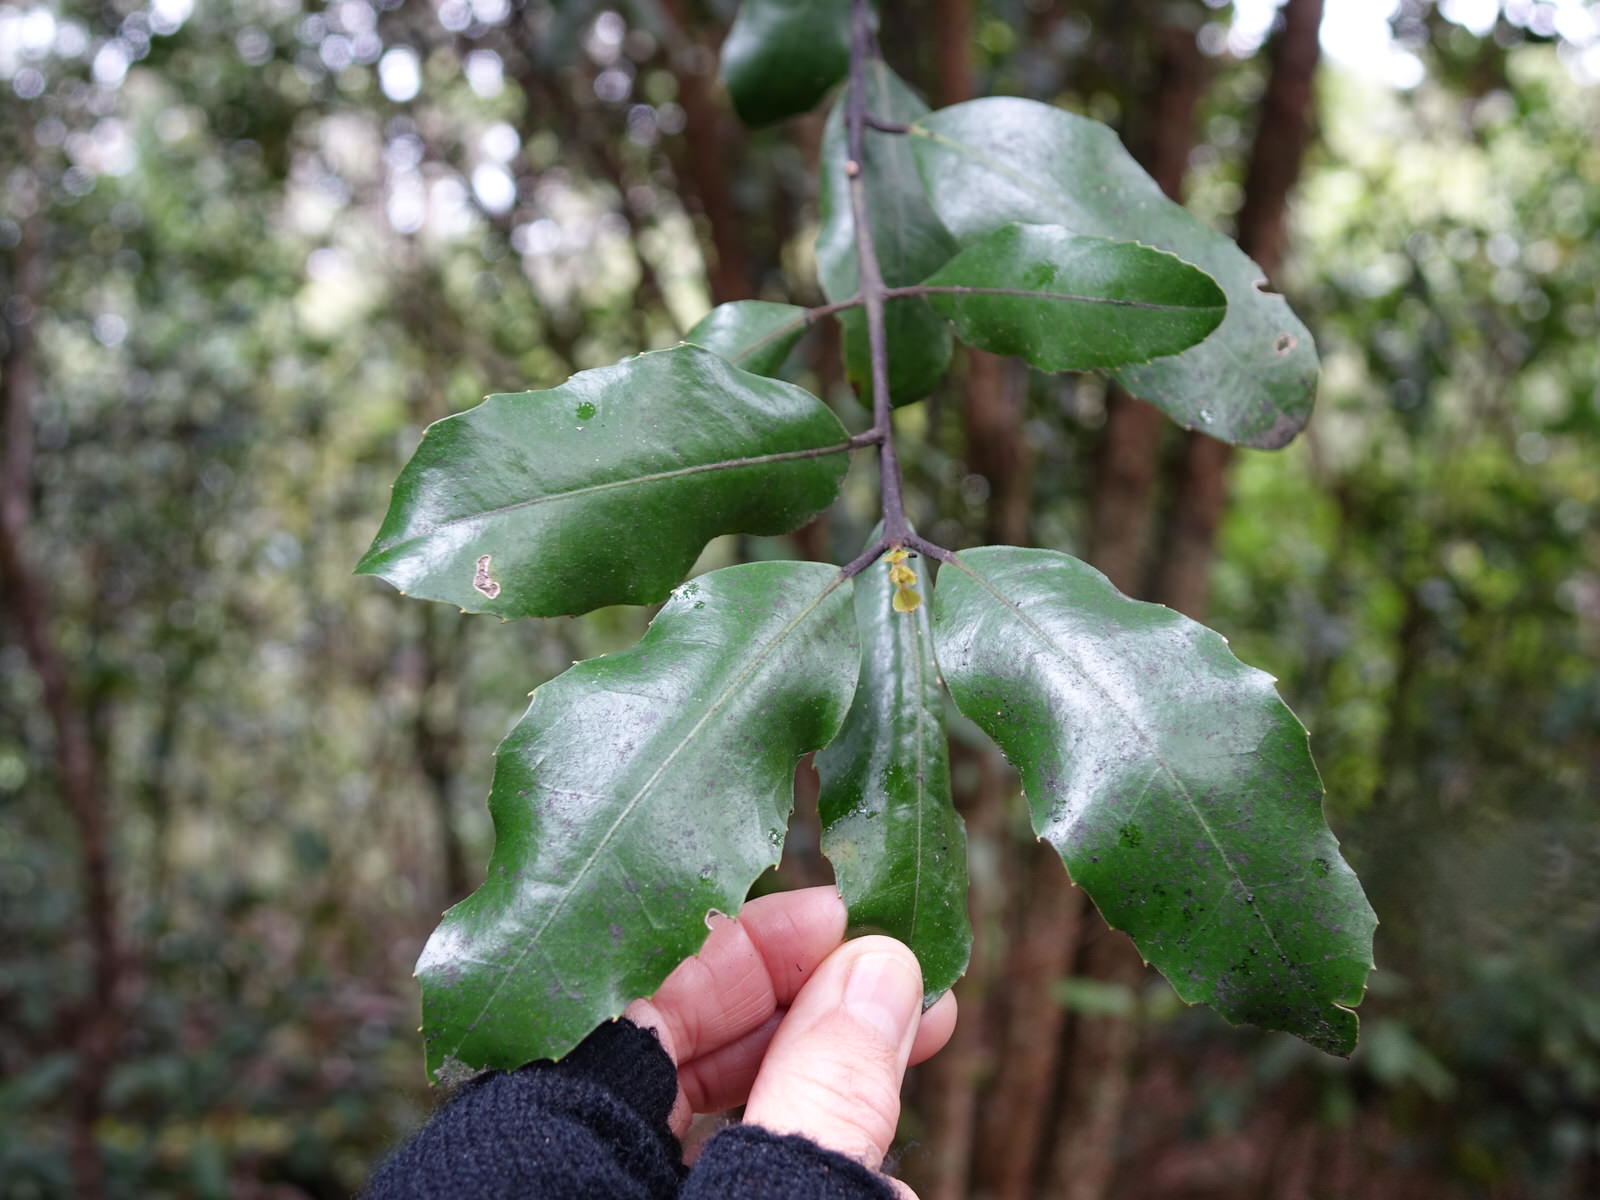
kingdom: Plantae
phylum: Tracheophyta
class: Magnoliopsida
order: Laurales
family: Monimiaceae
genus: Hedycarya
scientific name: Hedycarya arborea
